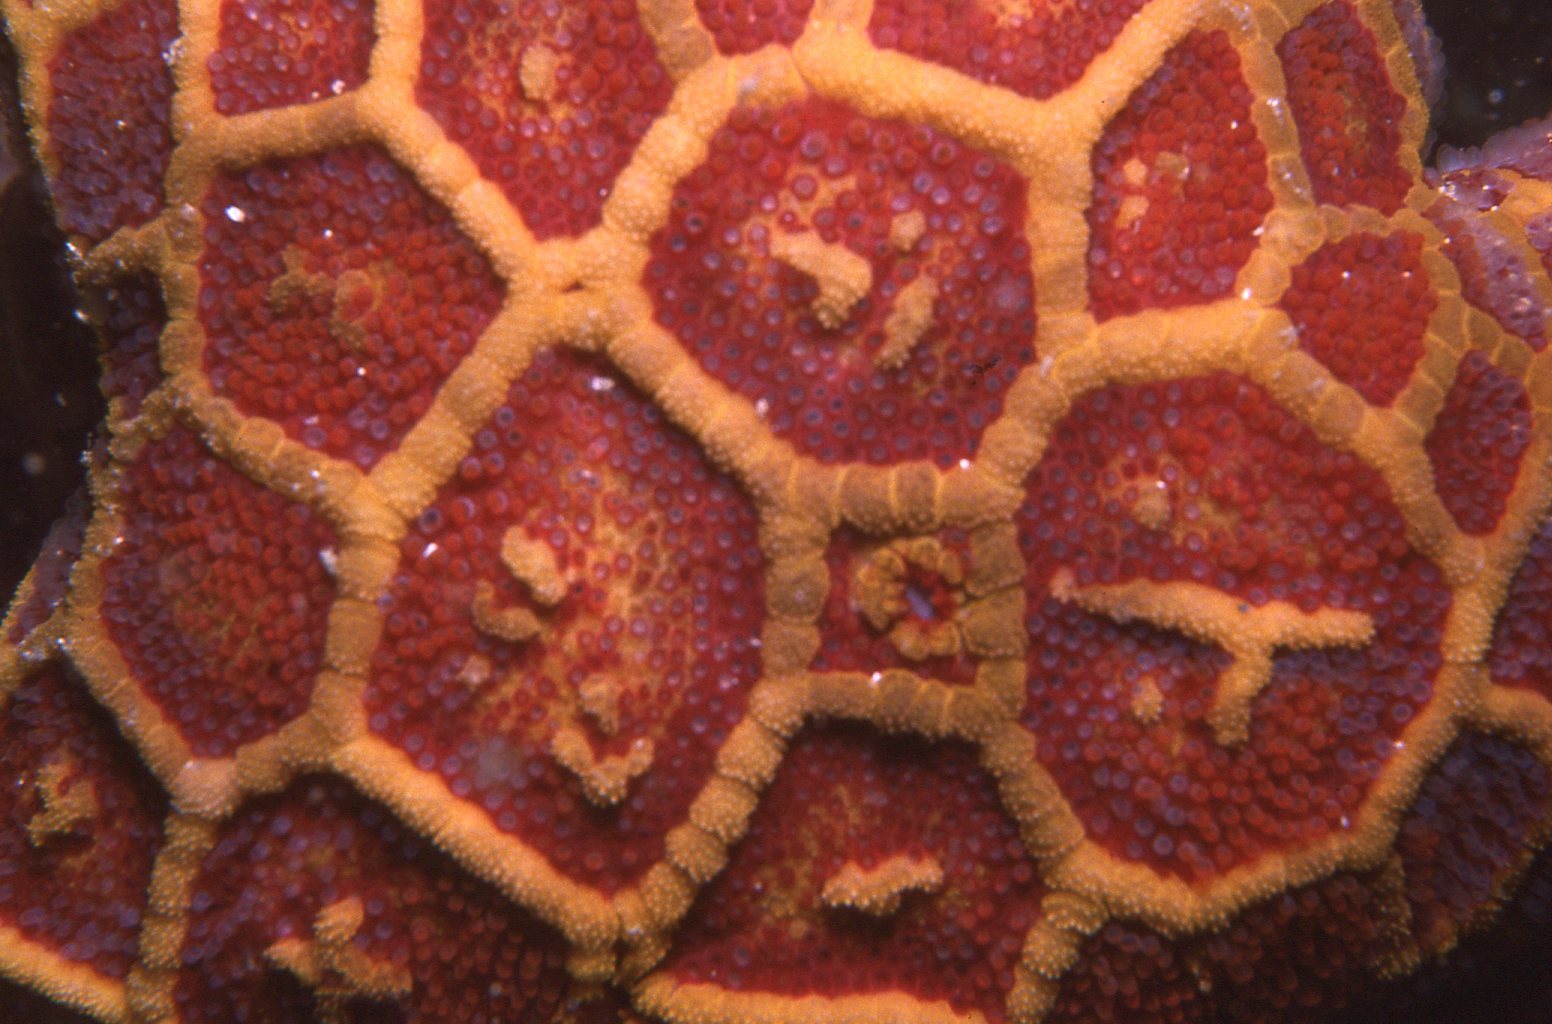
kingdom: Animalia
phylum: Echinodermata
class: Asteroidea
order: Spinulosida
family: Echinasteridae
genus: Plectaster
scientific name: Plectaster decanus
